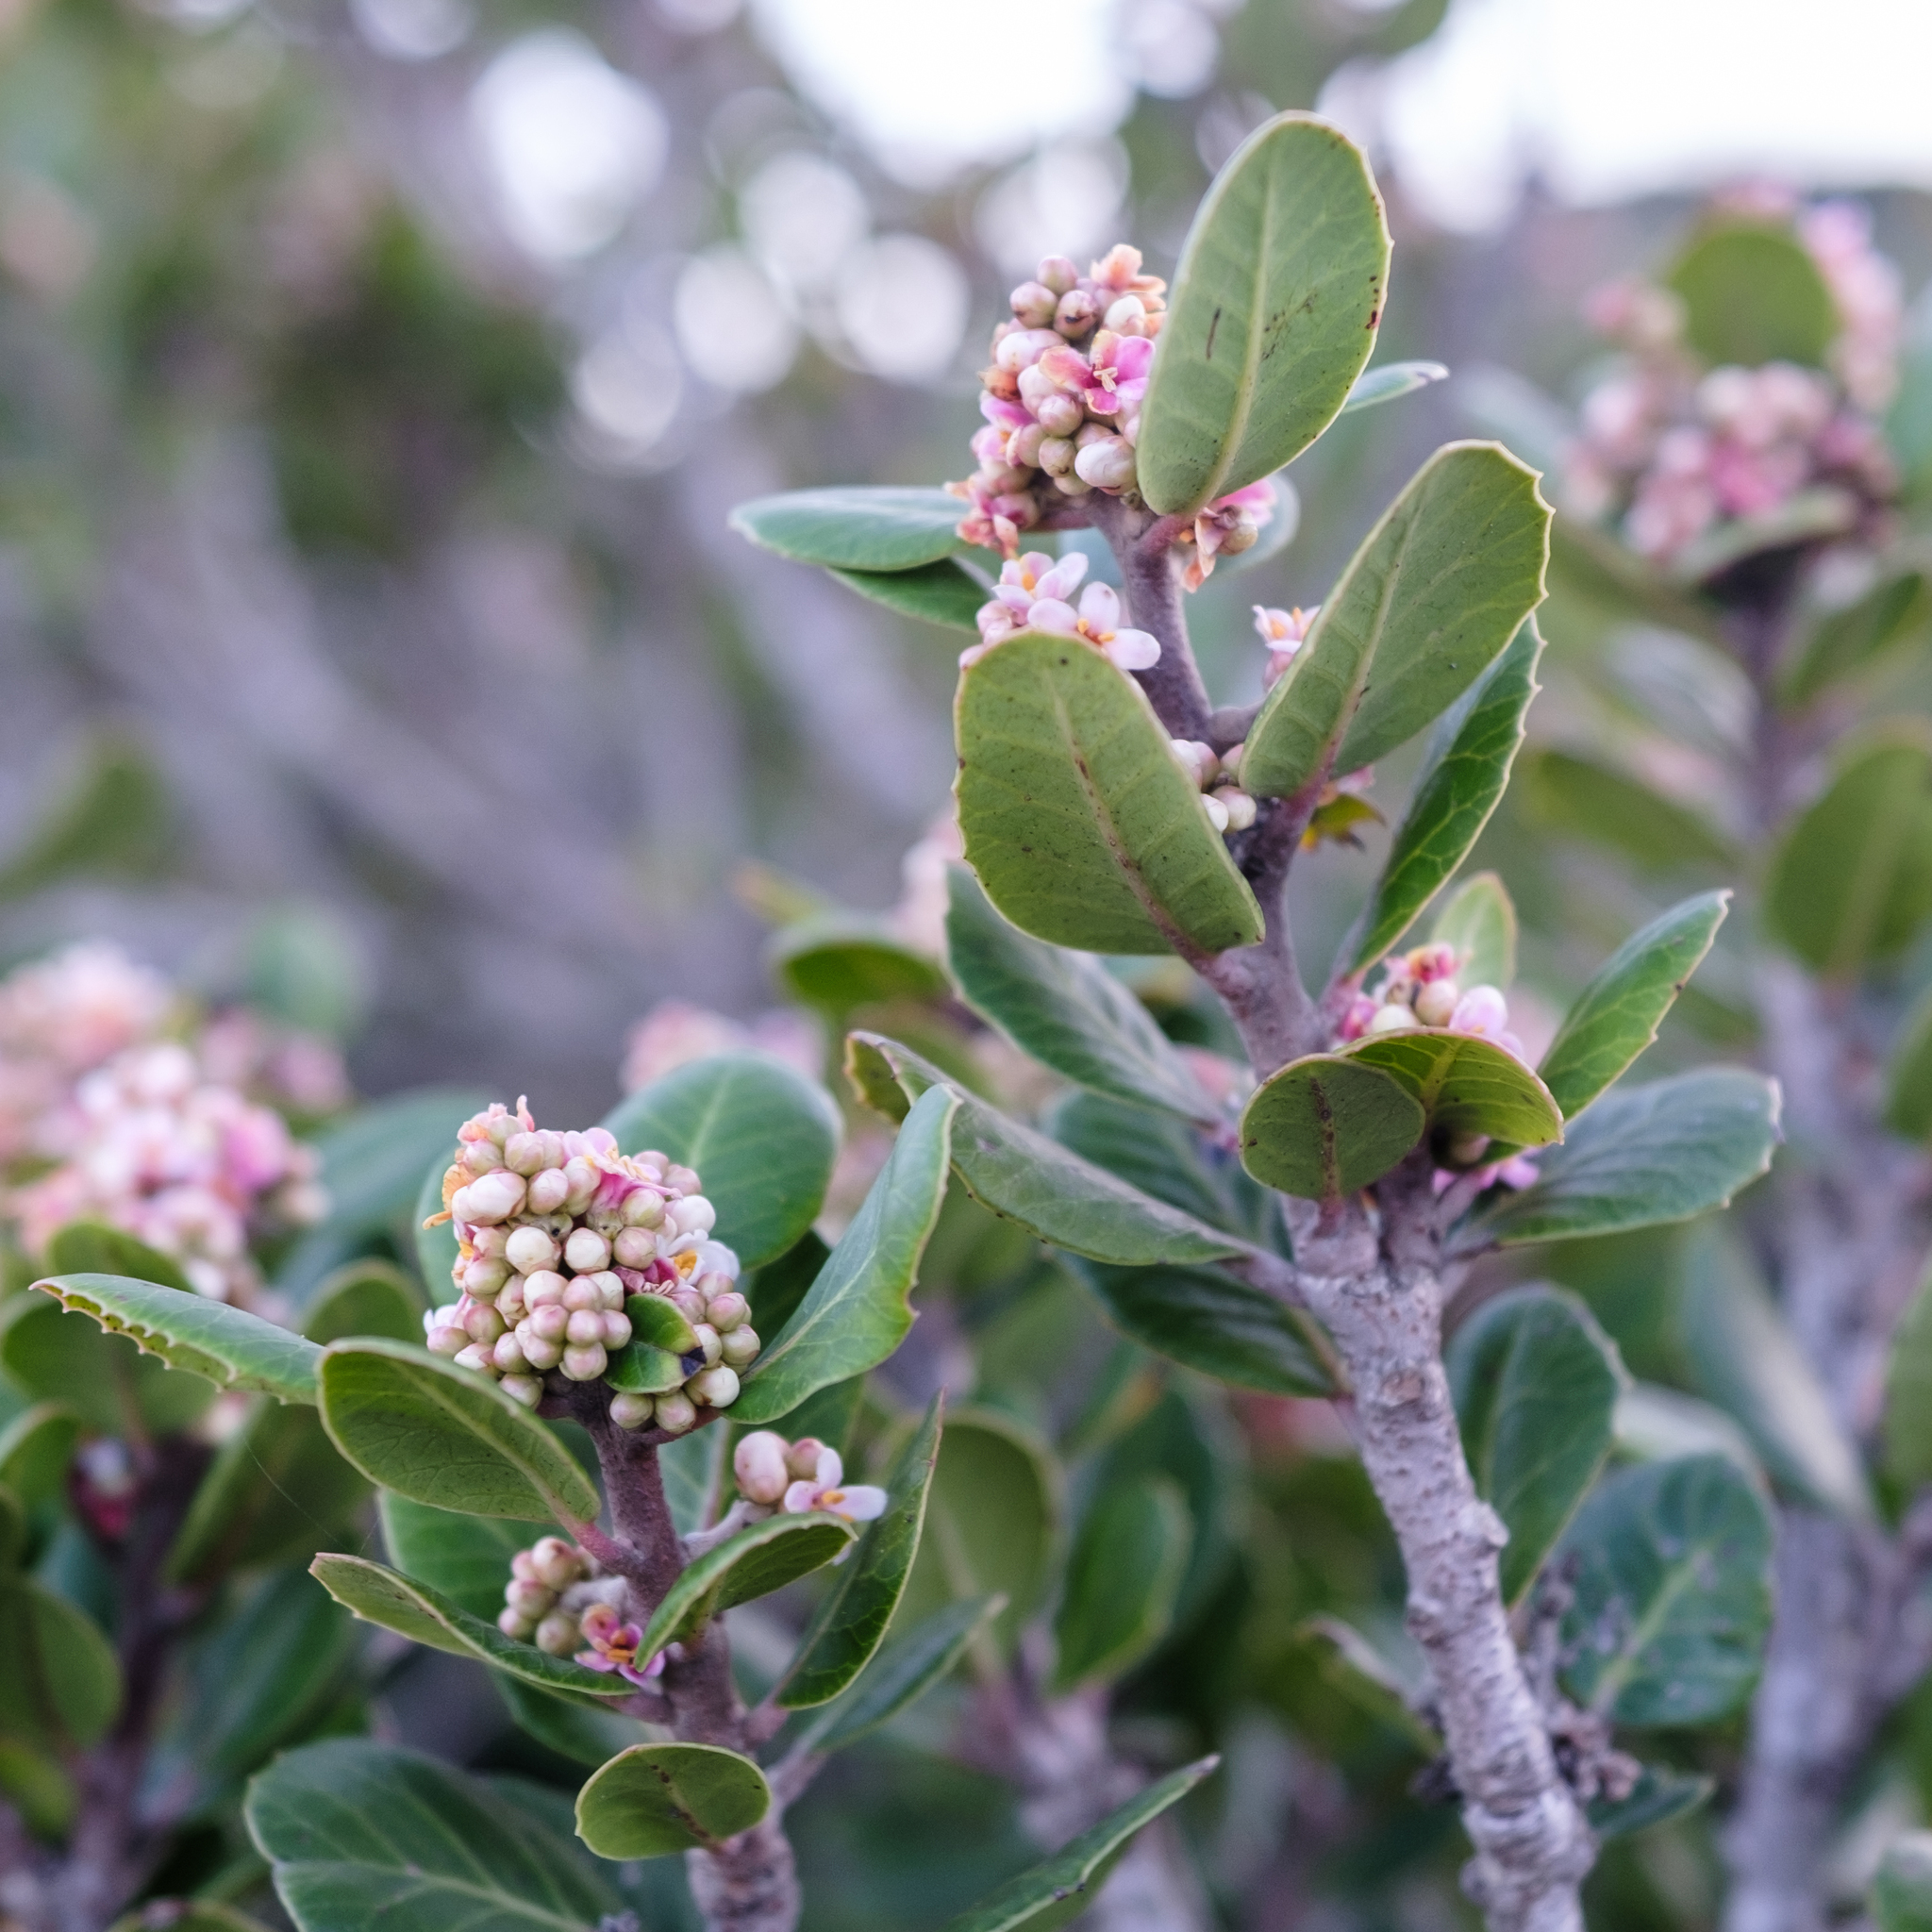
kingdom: Plantae
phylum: Tracheophyta
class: Magnoliopsida
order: Sapindales
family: Anacardiaceae
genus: Rhus
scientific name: Rhus integrifolia
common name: Lemonade sumac
